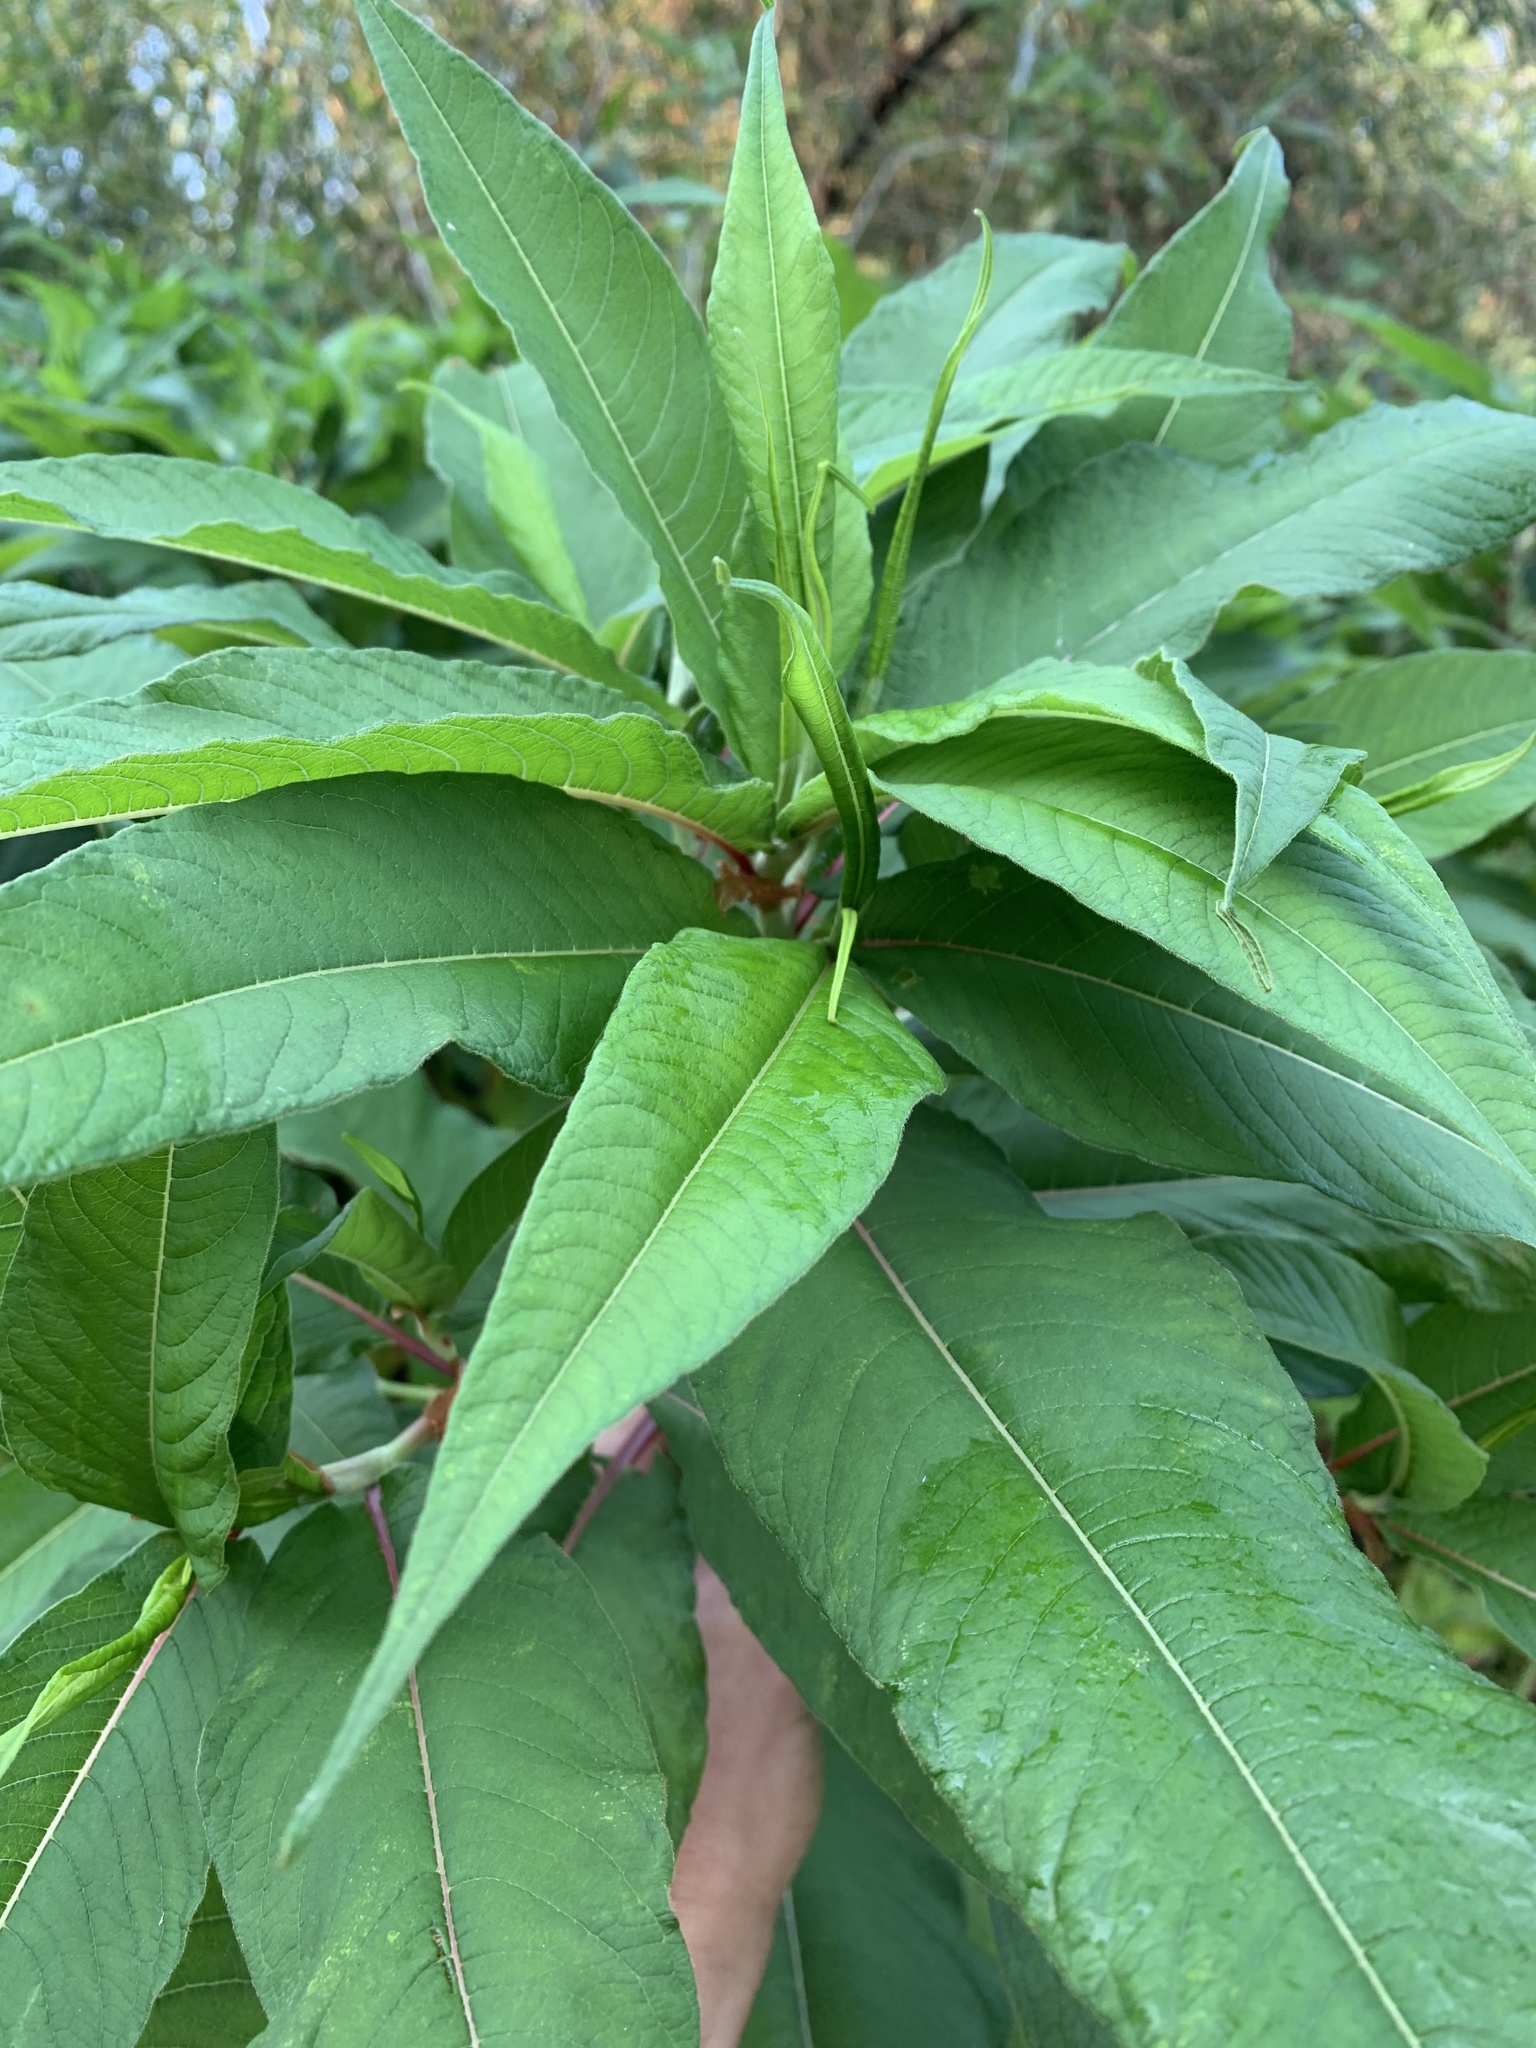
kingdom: Plantae
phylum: Tracheophyta
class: Magnoliopsida
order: Caryophyllales
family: Polygonaceae
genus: Koenigia
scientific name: Koenigia polystachya
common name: Himalayan knotweed
